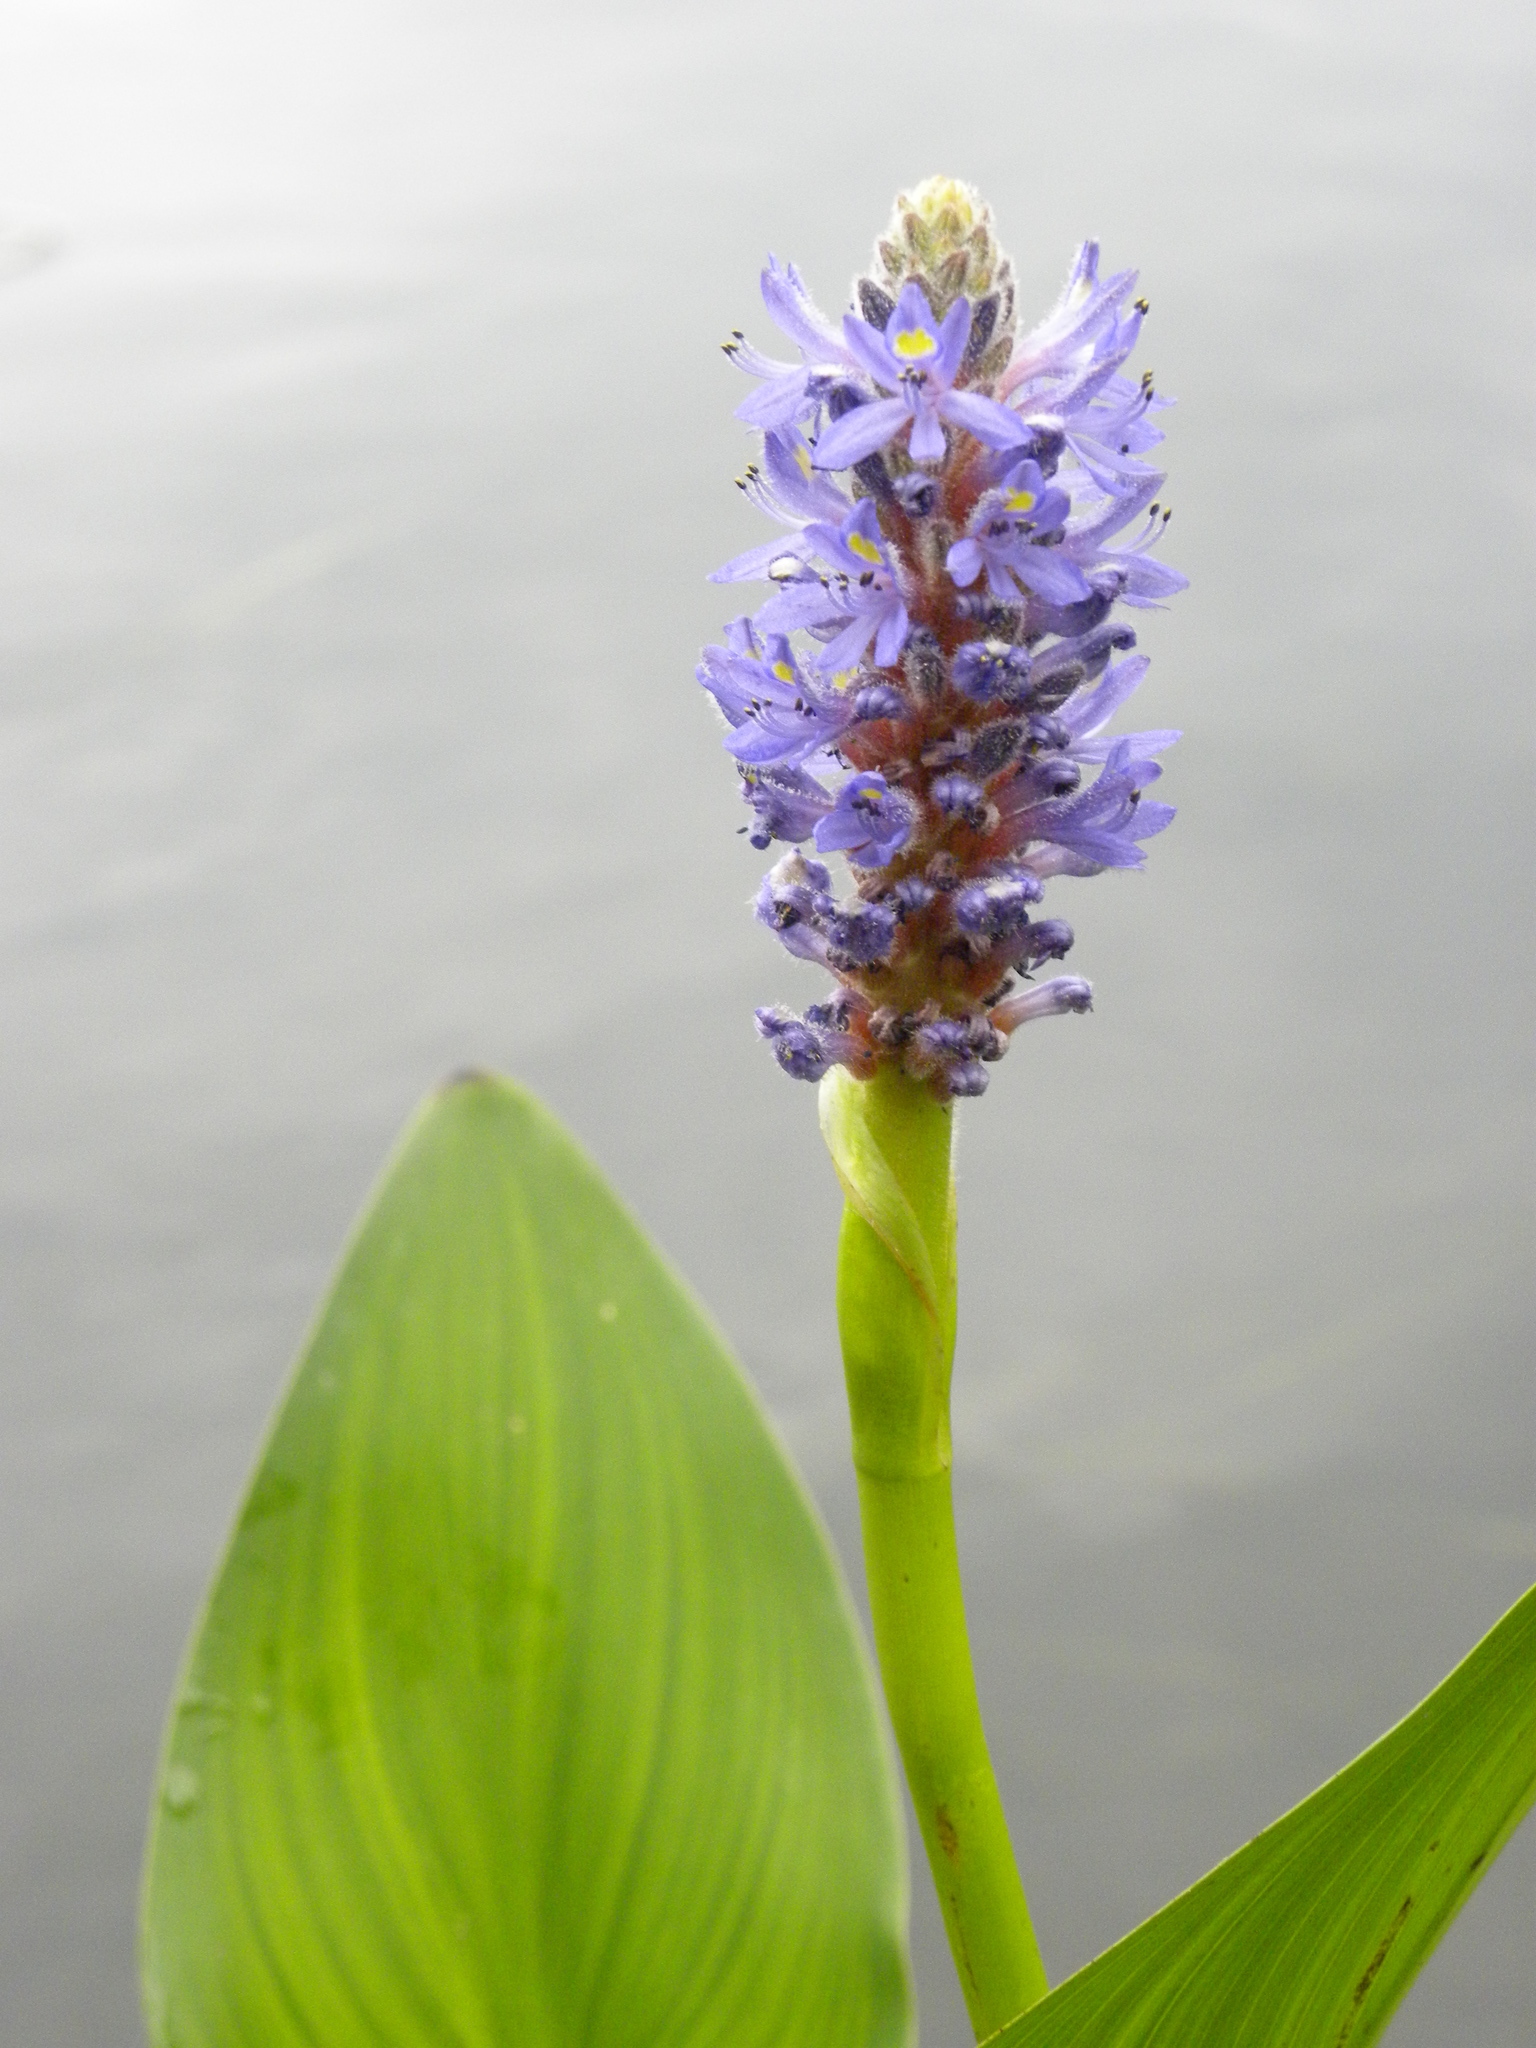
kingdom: Plantae
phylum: Tracheophyta
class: Liliopsida
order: Commelinales
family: Pontederiaceae
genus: Pontederia
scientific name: Pontederia cordata
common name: Pickerelweed
